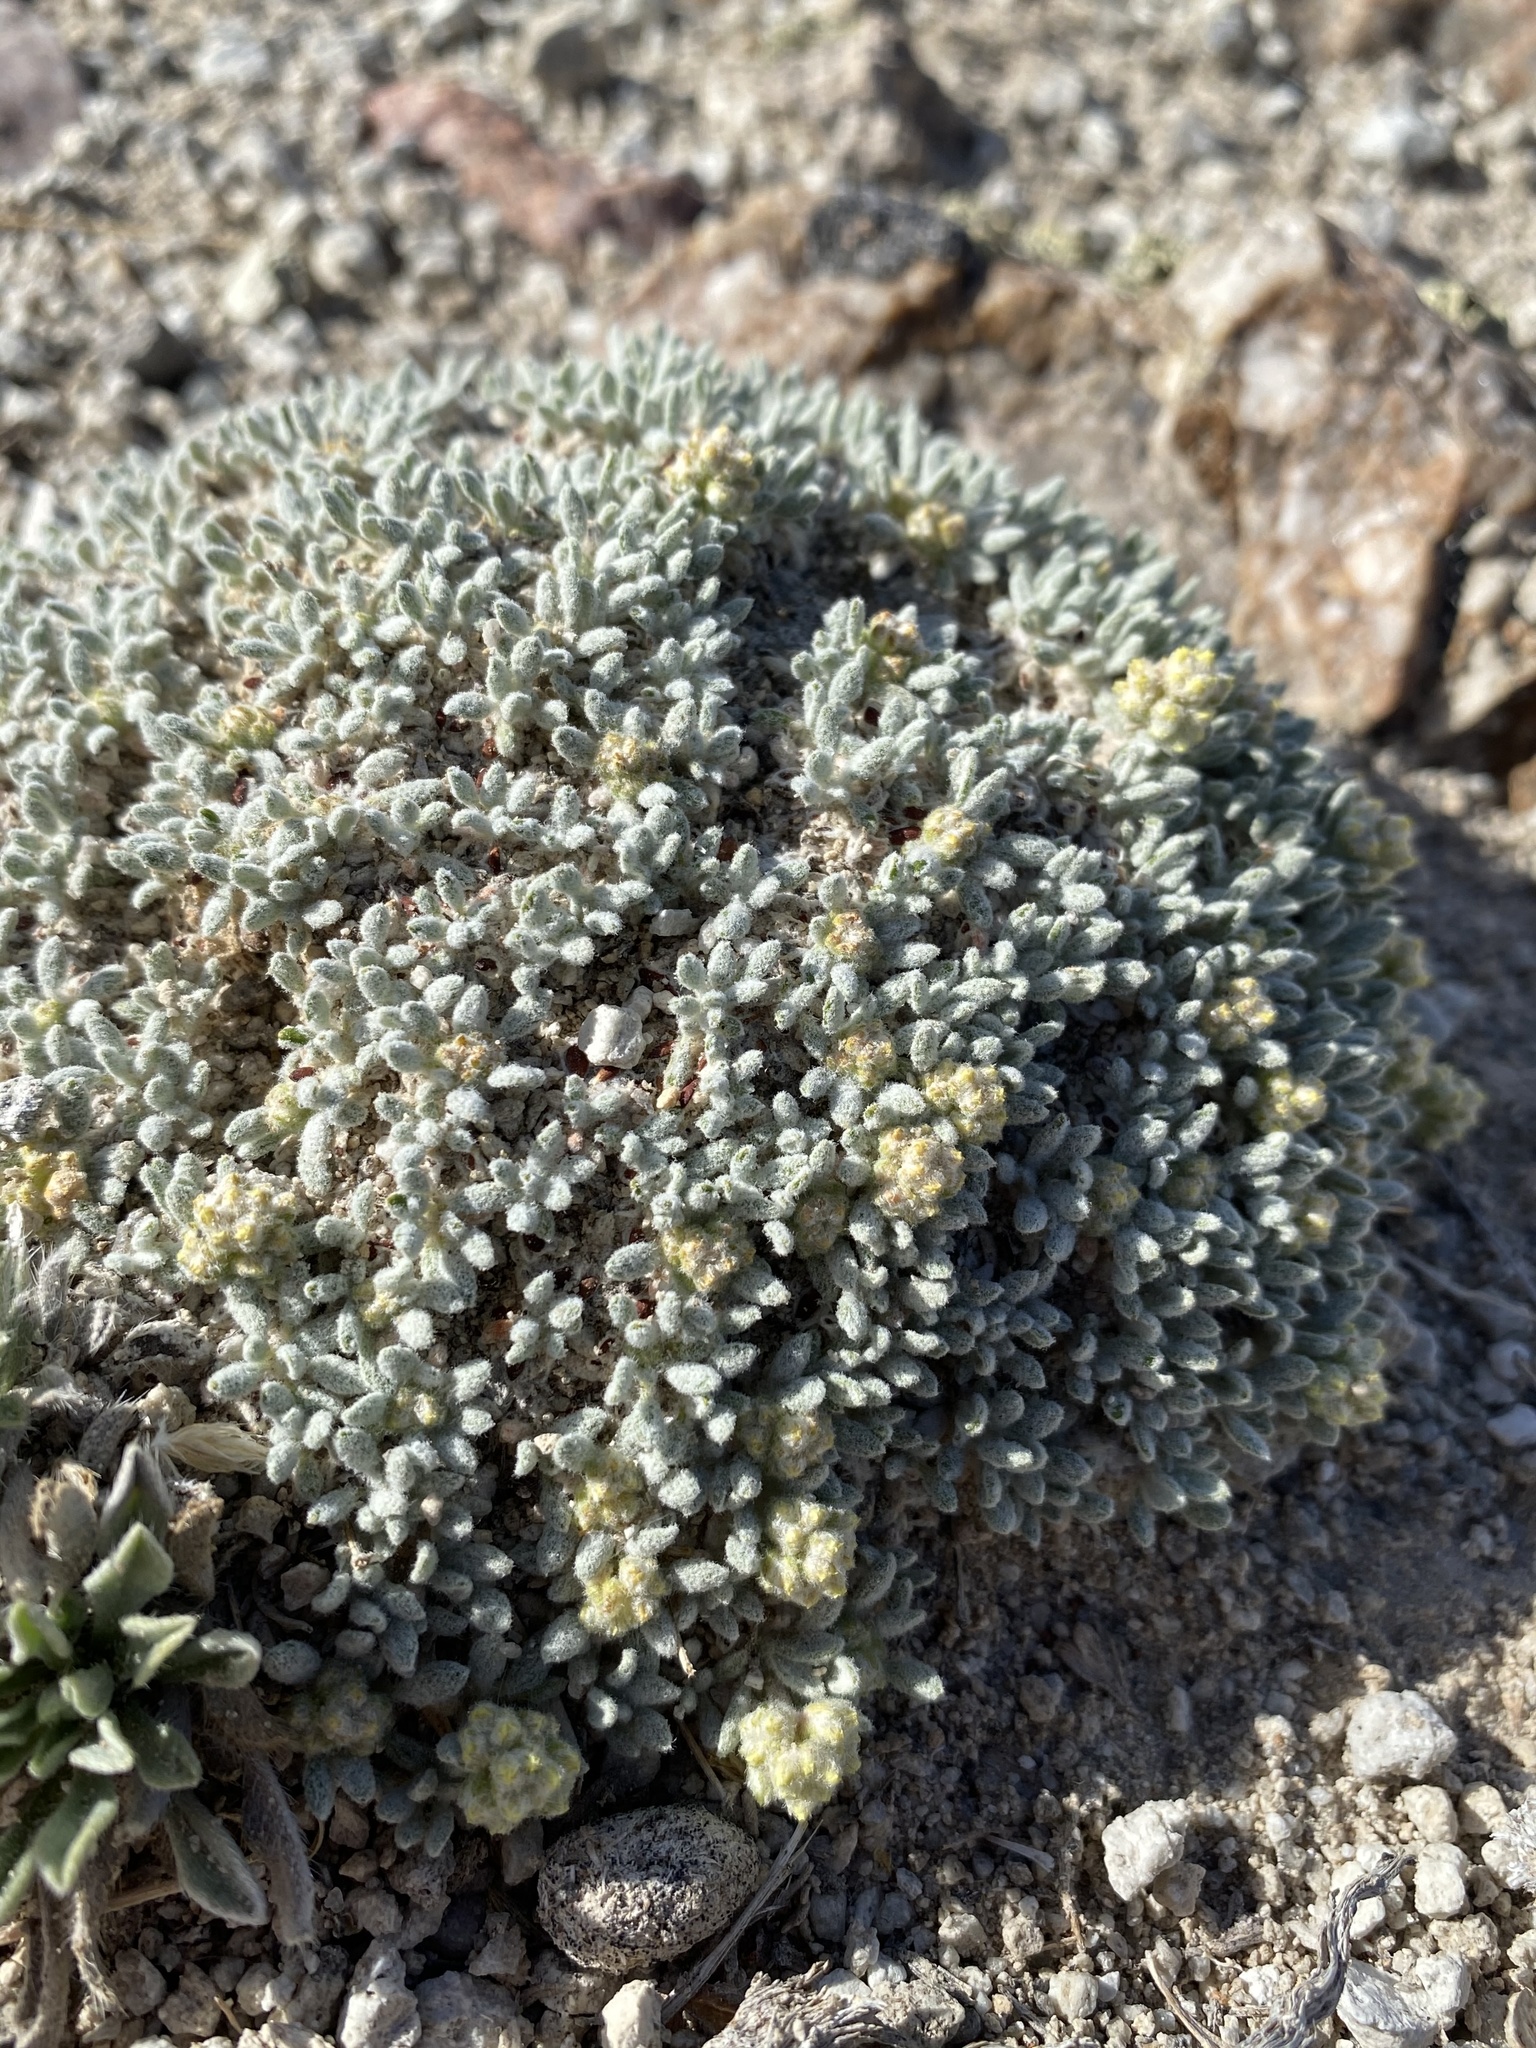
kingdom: Plantae
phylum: Tracheophyta
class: Magnoliopsida
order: Caryophyllales
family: Polygonaceae
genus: Eriogonum
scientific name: Eriogonum shockleyi
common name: Shockley's wild buckwheat
